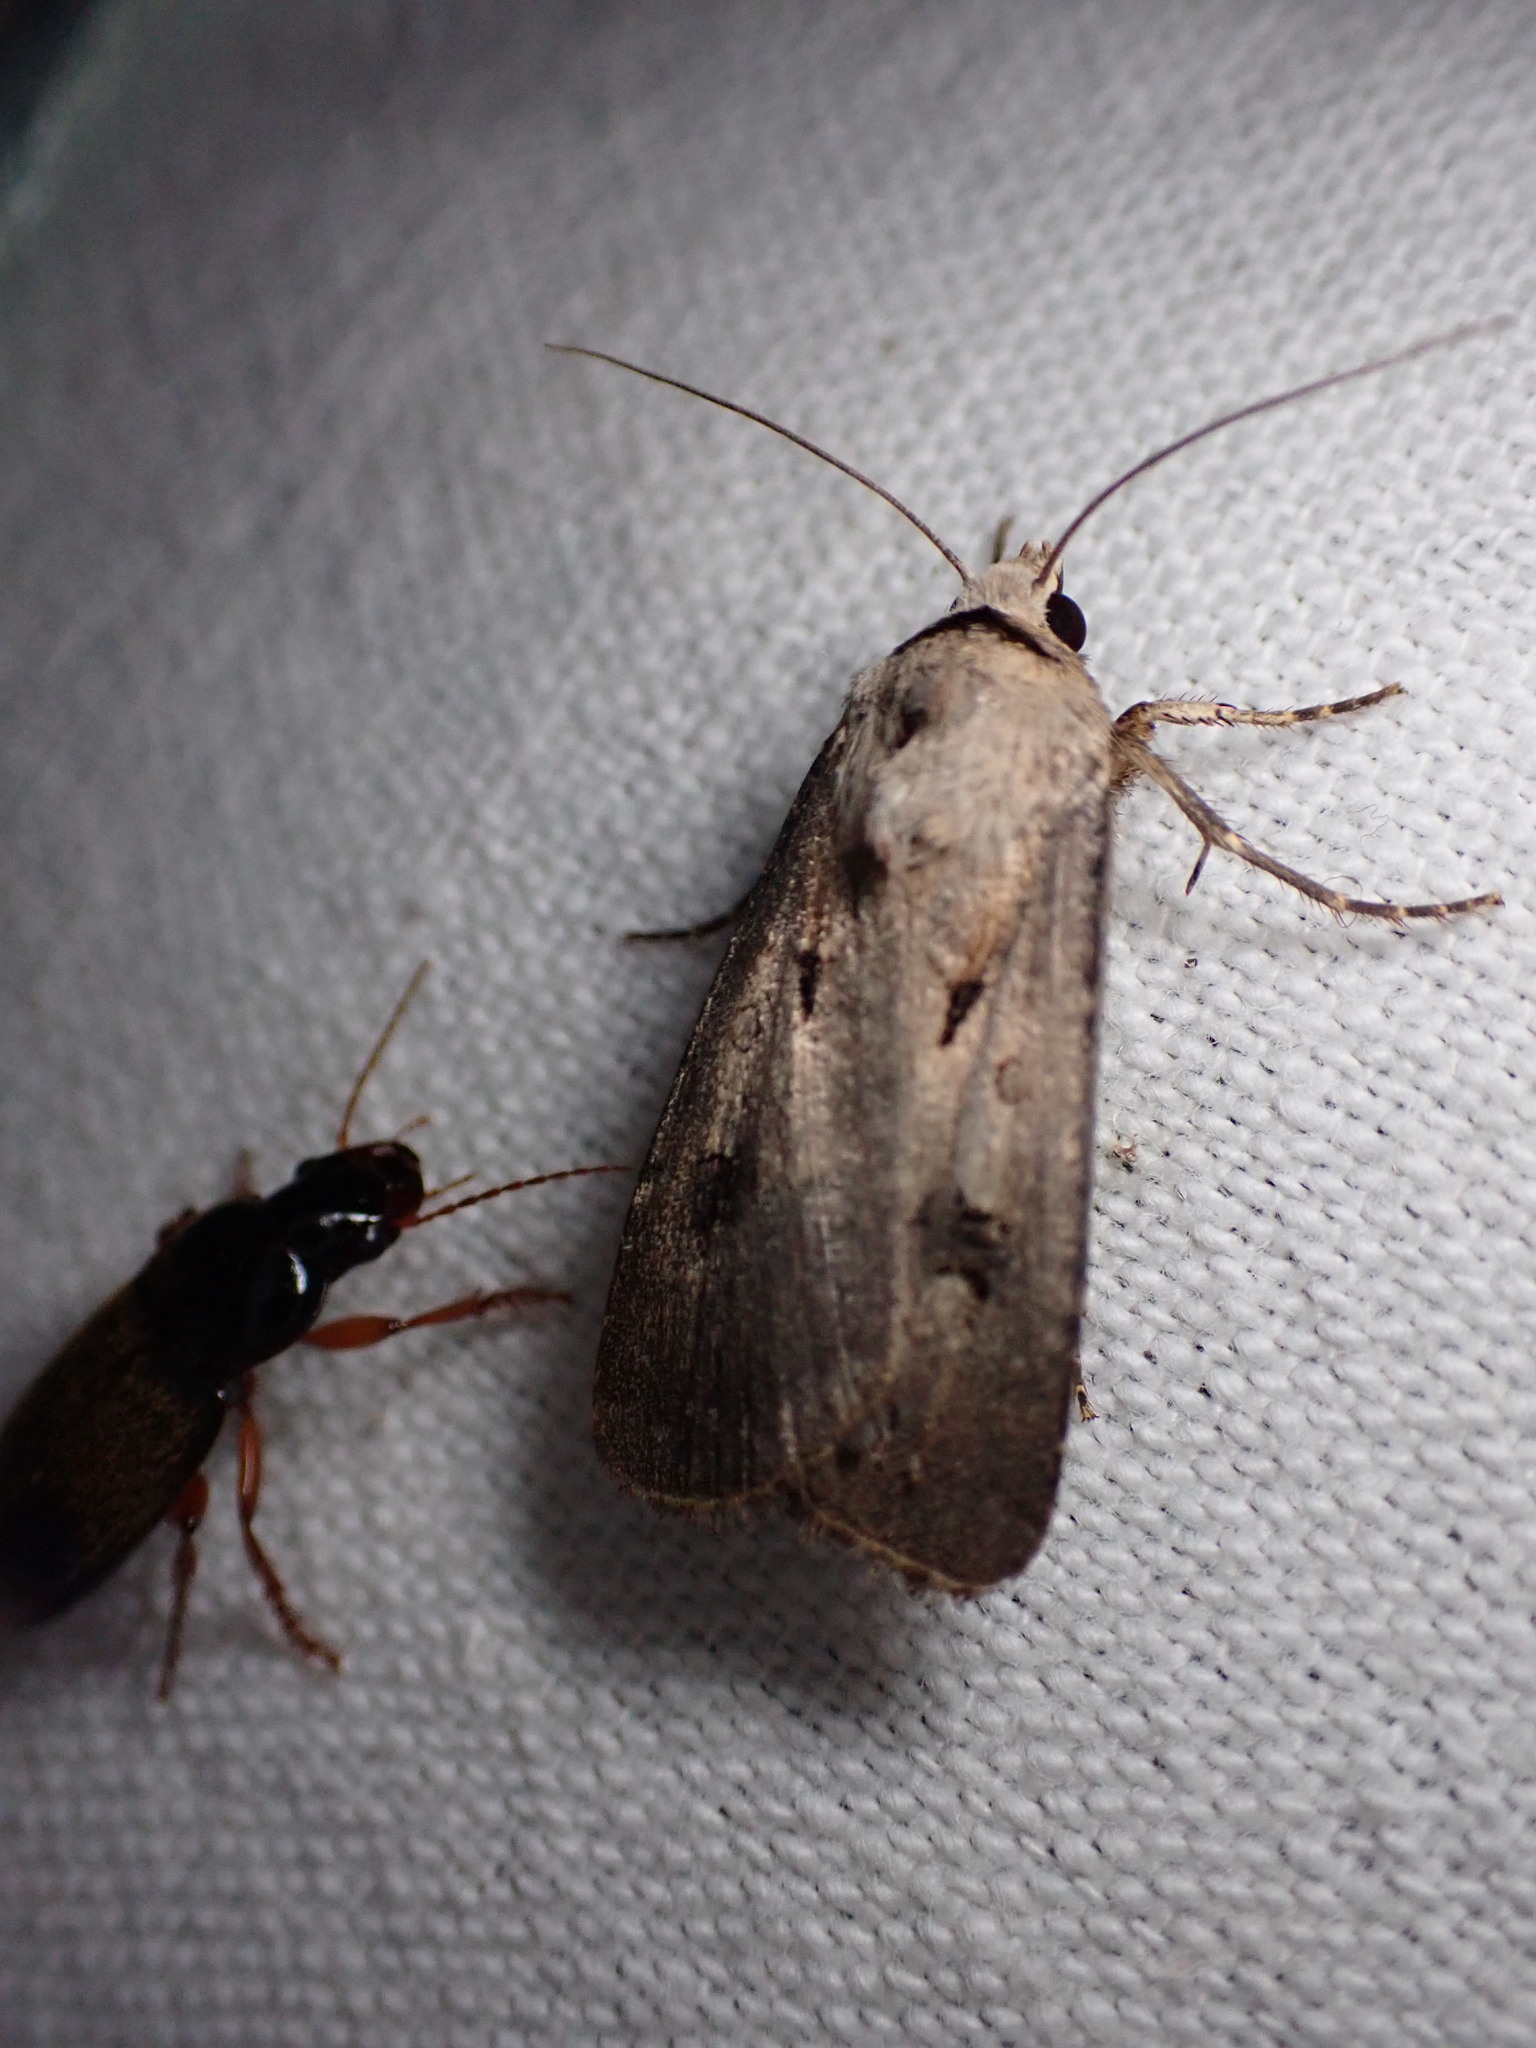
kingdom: Animalia
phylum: Arthropoda
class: Insecta
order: Lepidoptera
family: Noctuidae
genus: Agrotis
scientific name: Agrotis exclamationis
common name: Heart and dart
